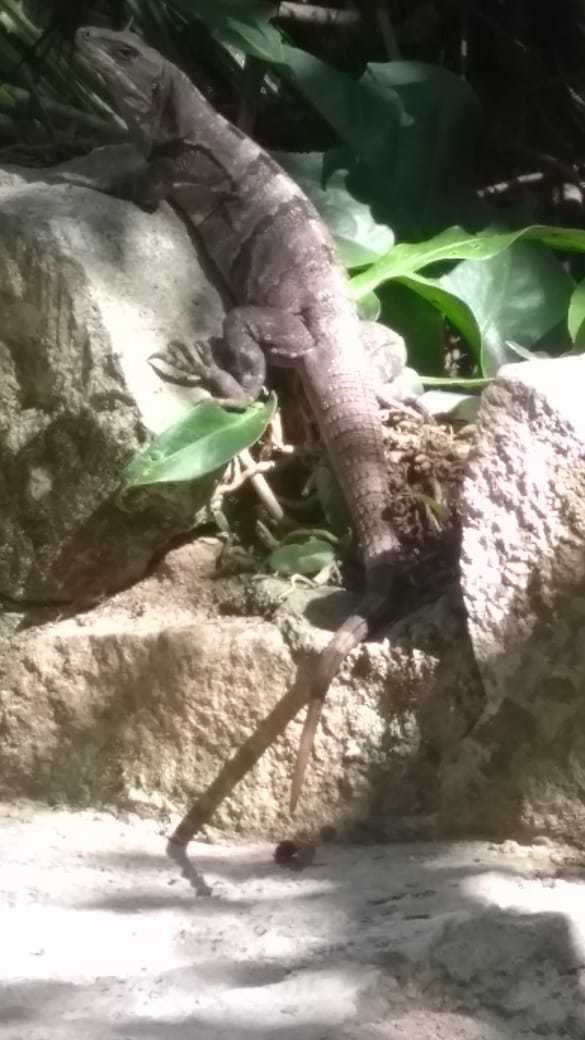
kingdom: Animalia
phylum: Chordata
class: Squamata
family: Iguanidae
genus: Ctenosaura
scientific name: Ctenosaura similis
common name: Black spiny-tailed iguana
